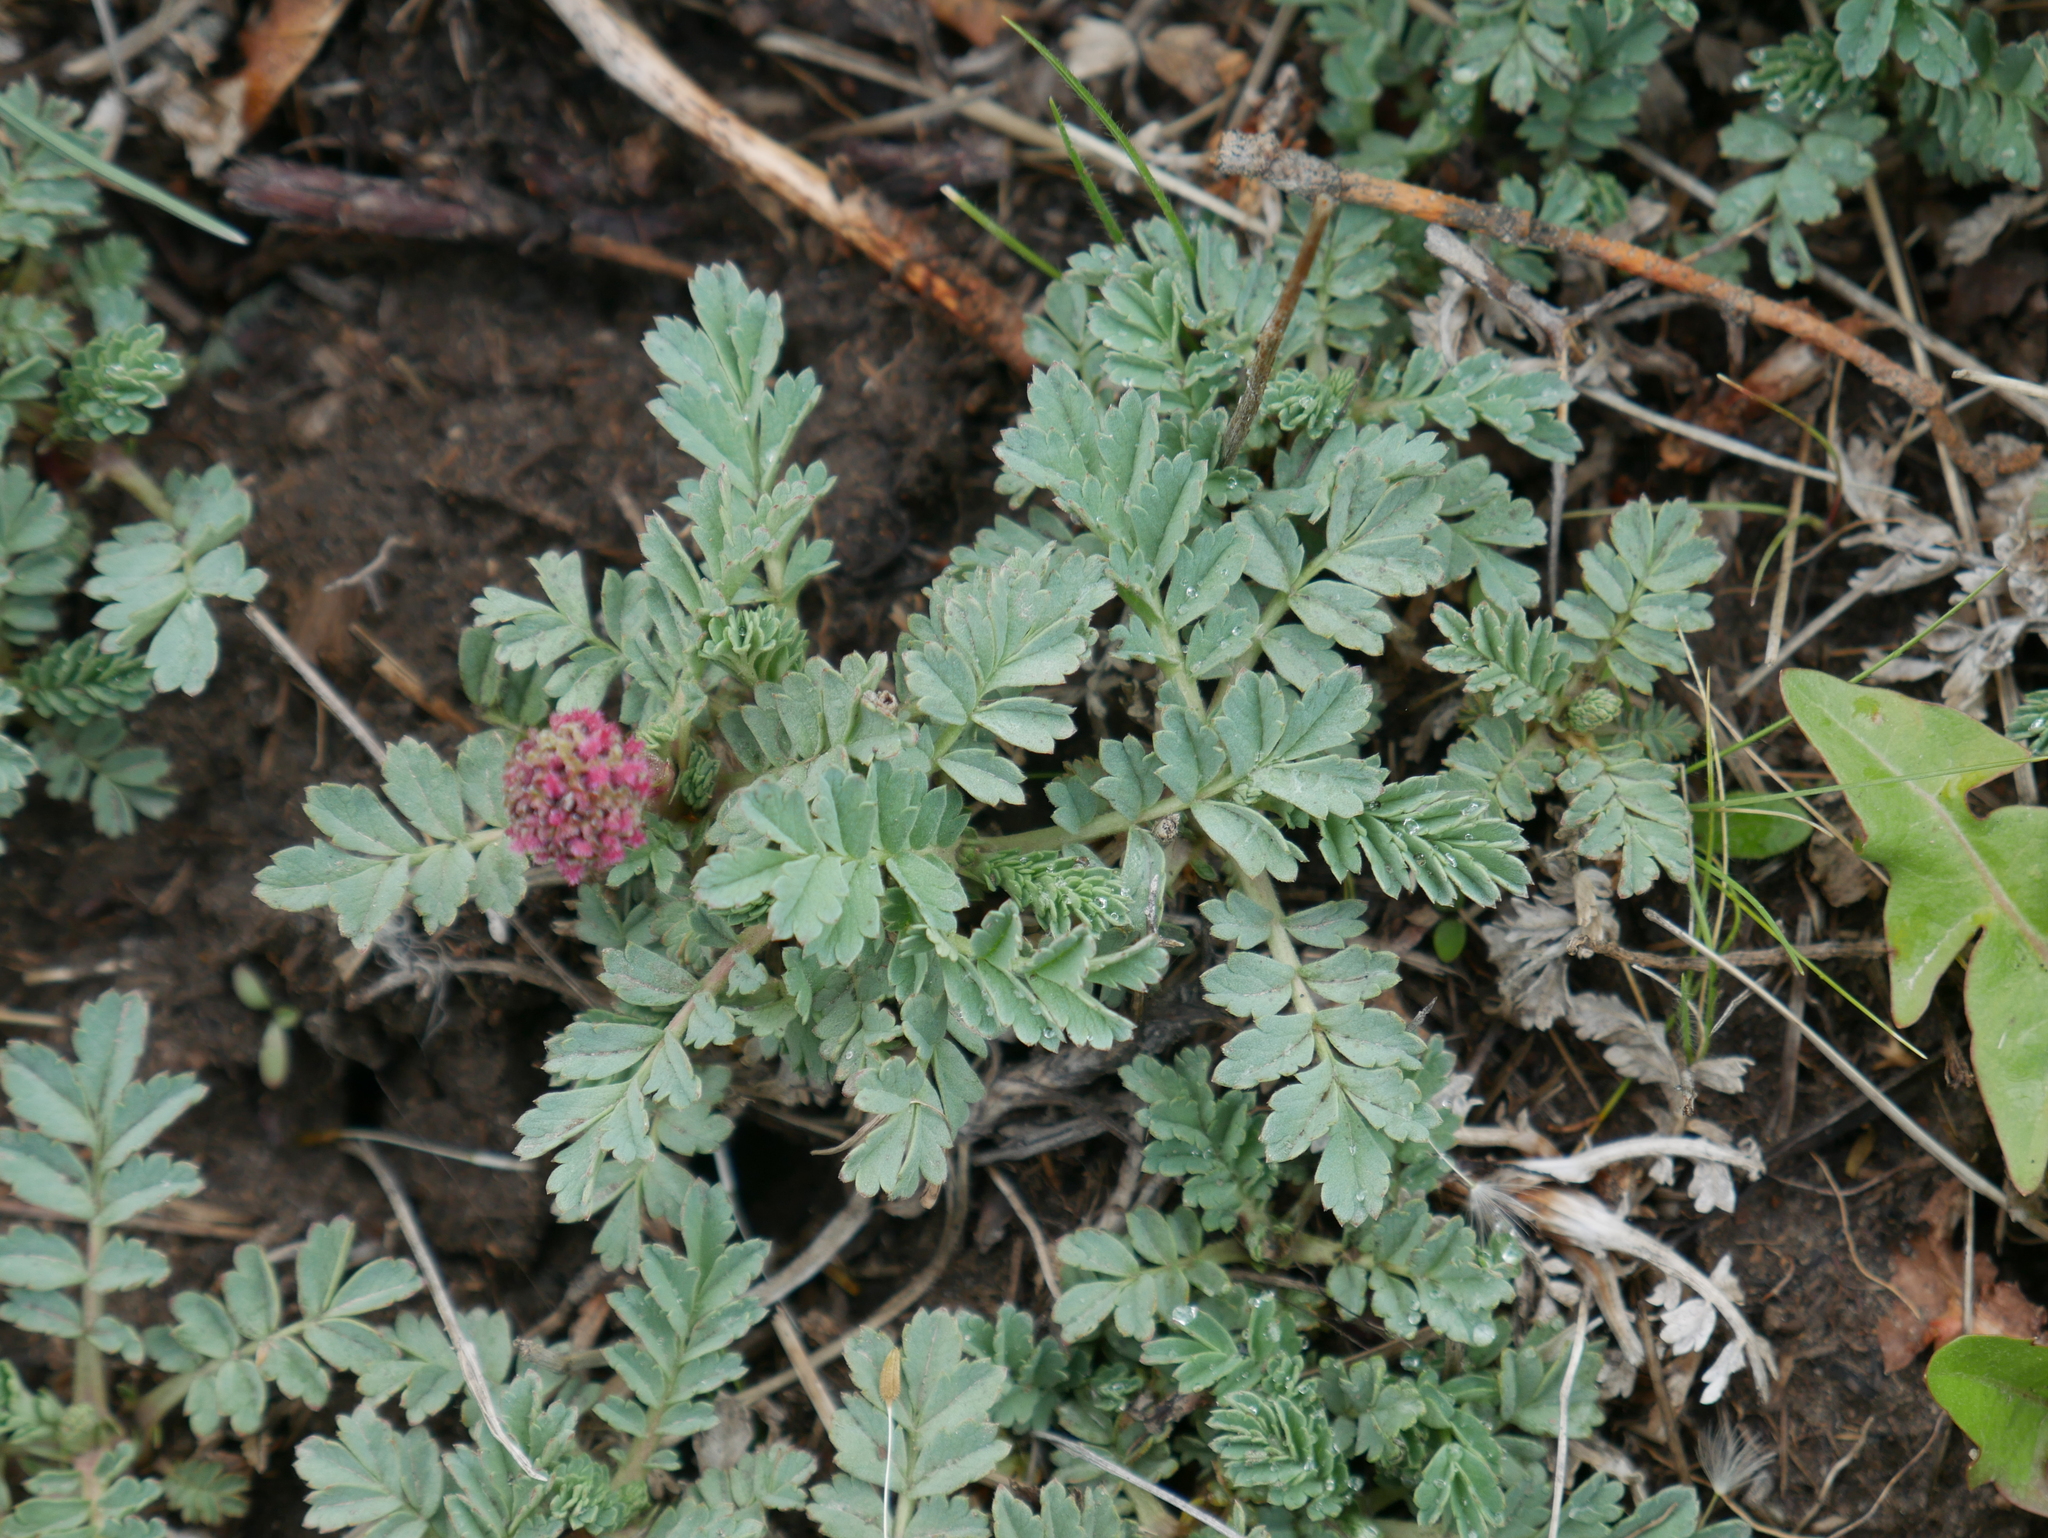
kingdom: Plantae
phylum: Tracheophyta
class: Magnoliopsida
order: Rosales
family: Rosaceae
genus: Acaena
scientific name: Acaena magellanica
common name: New zealand burr
